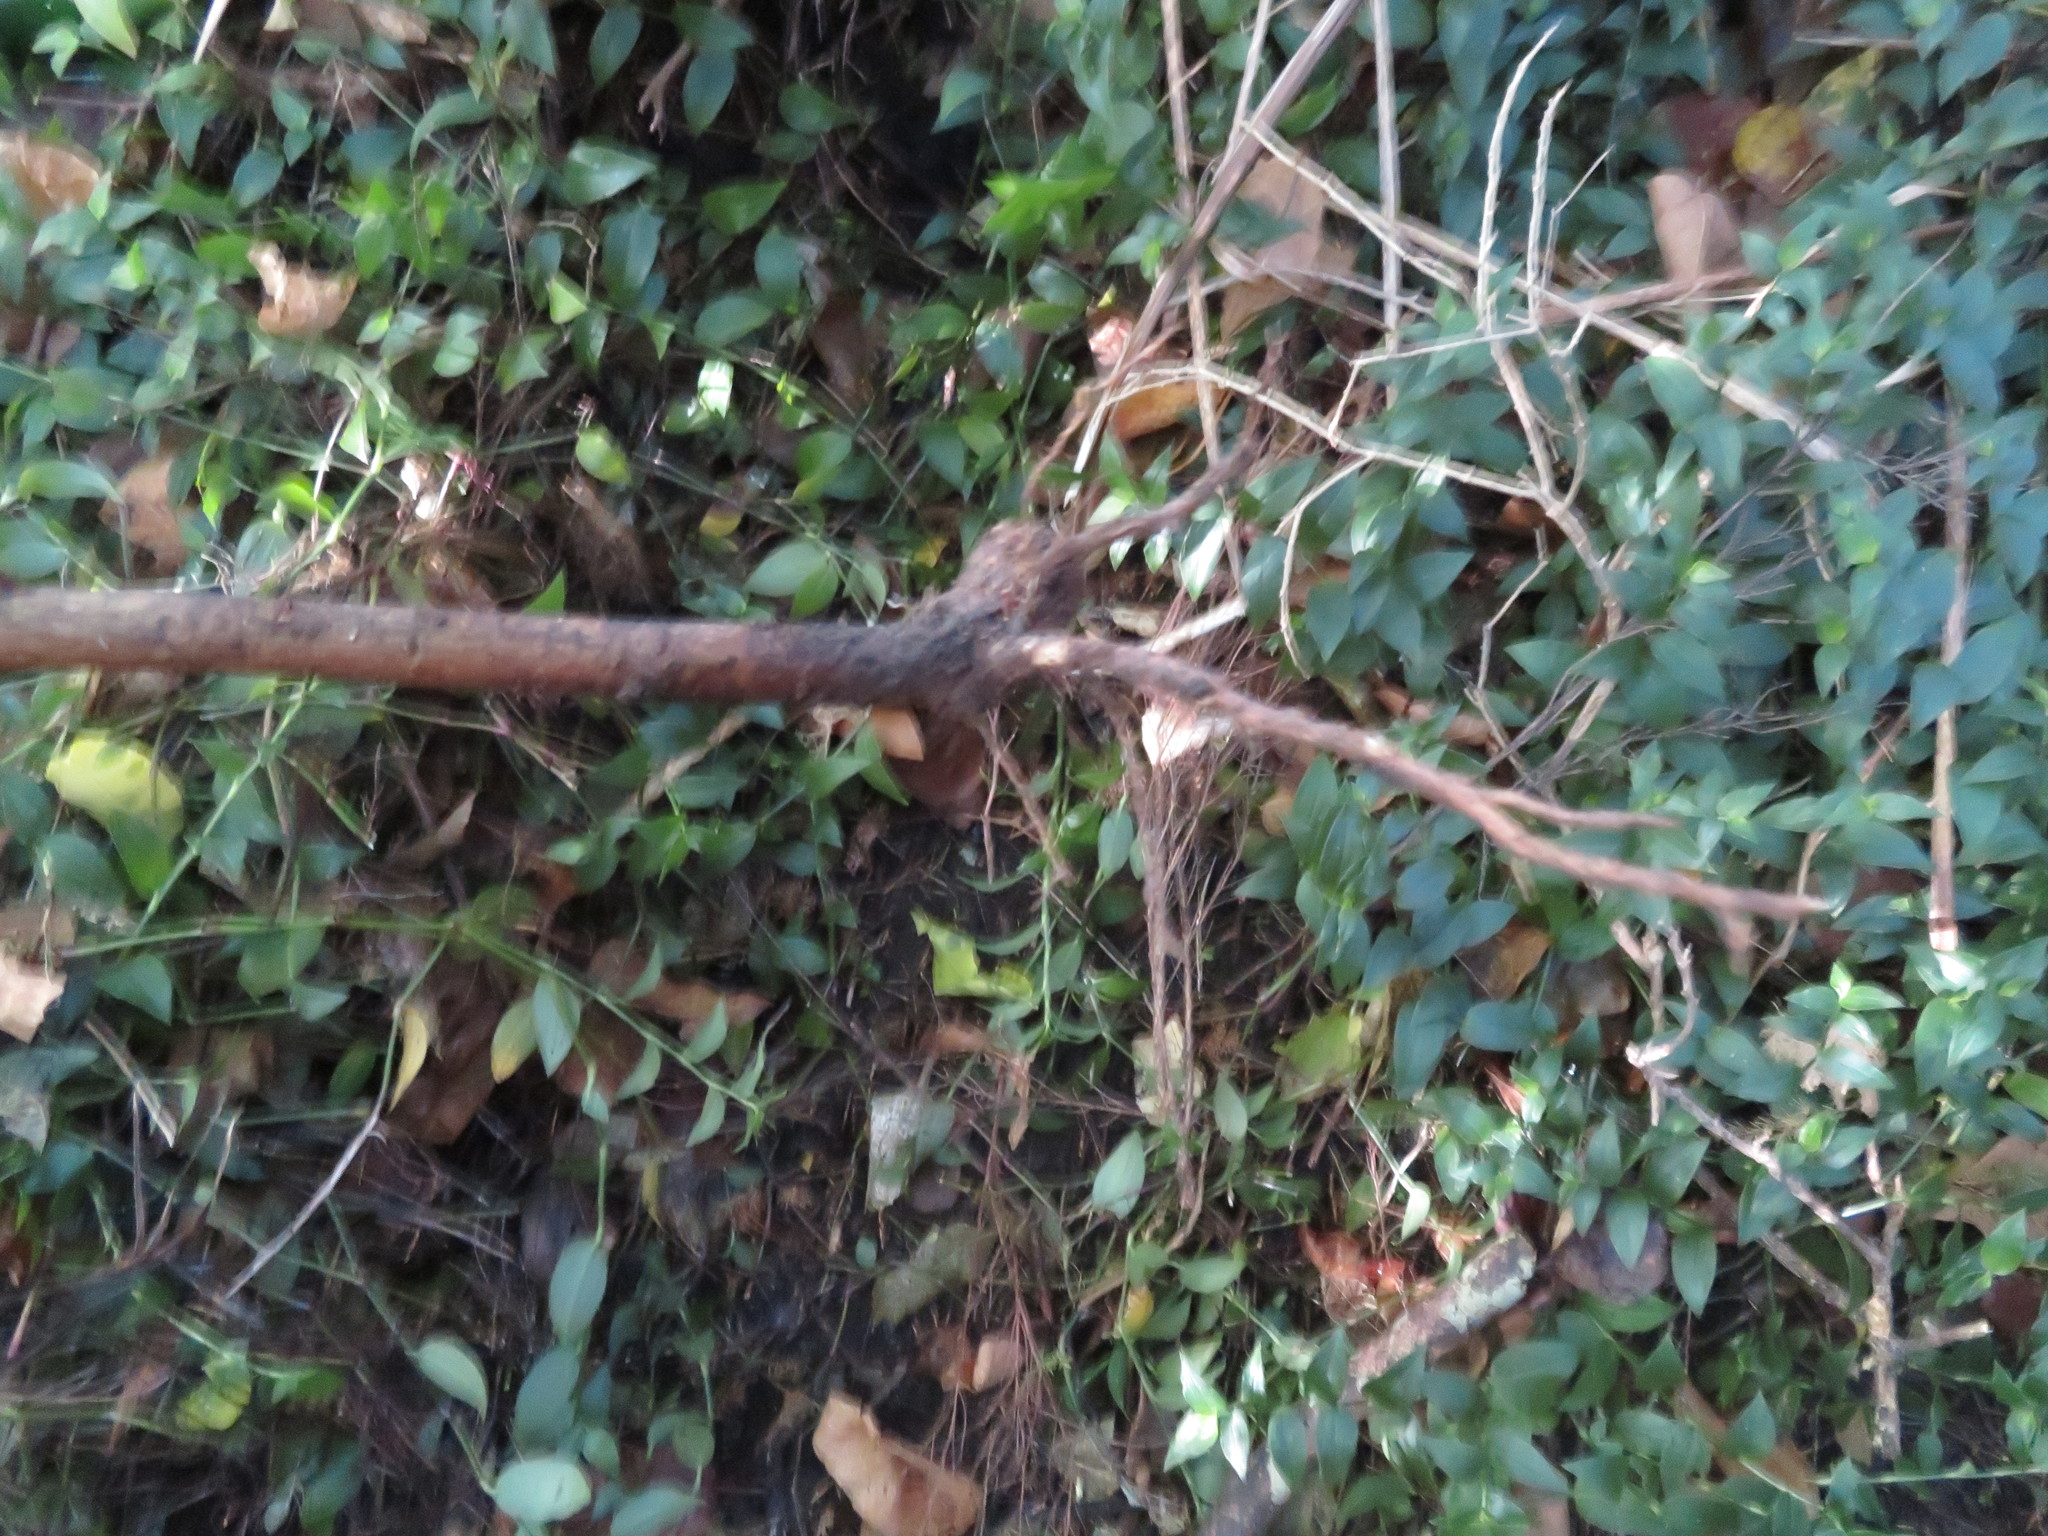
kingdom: Plantae
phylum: Tracheophyta
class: Magnoliopsida
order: Fabales
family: Fabaceae
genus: Erythrina
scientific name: Erythrina sykesii
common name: Coraltree
